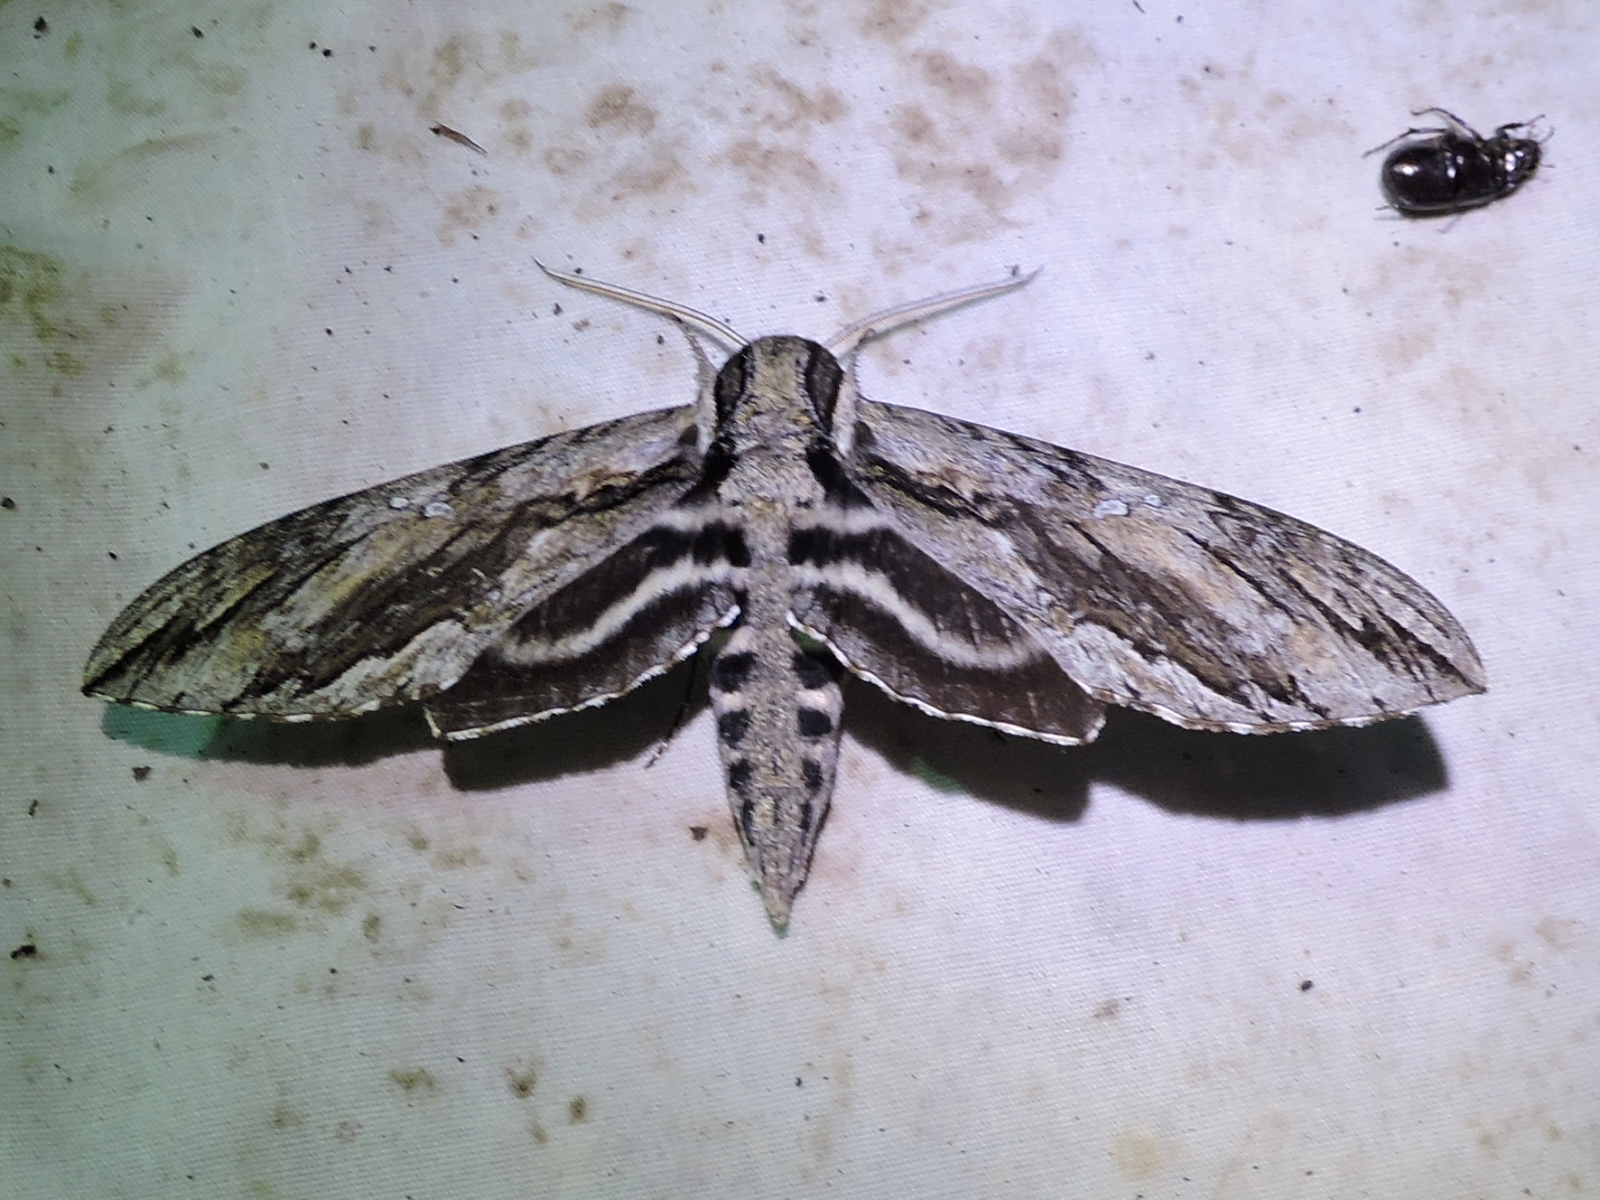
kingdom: Animalia
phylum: Arthropoda
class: Insecta
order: Lepidoptera
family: Sphingidae
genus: Lintneria
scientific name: Lintneria istar
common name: Istar sphinx
